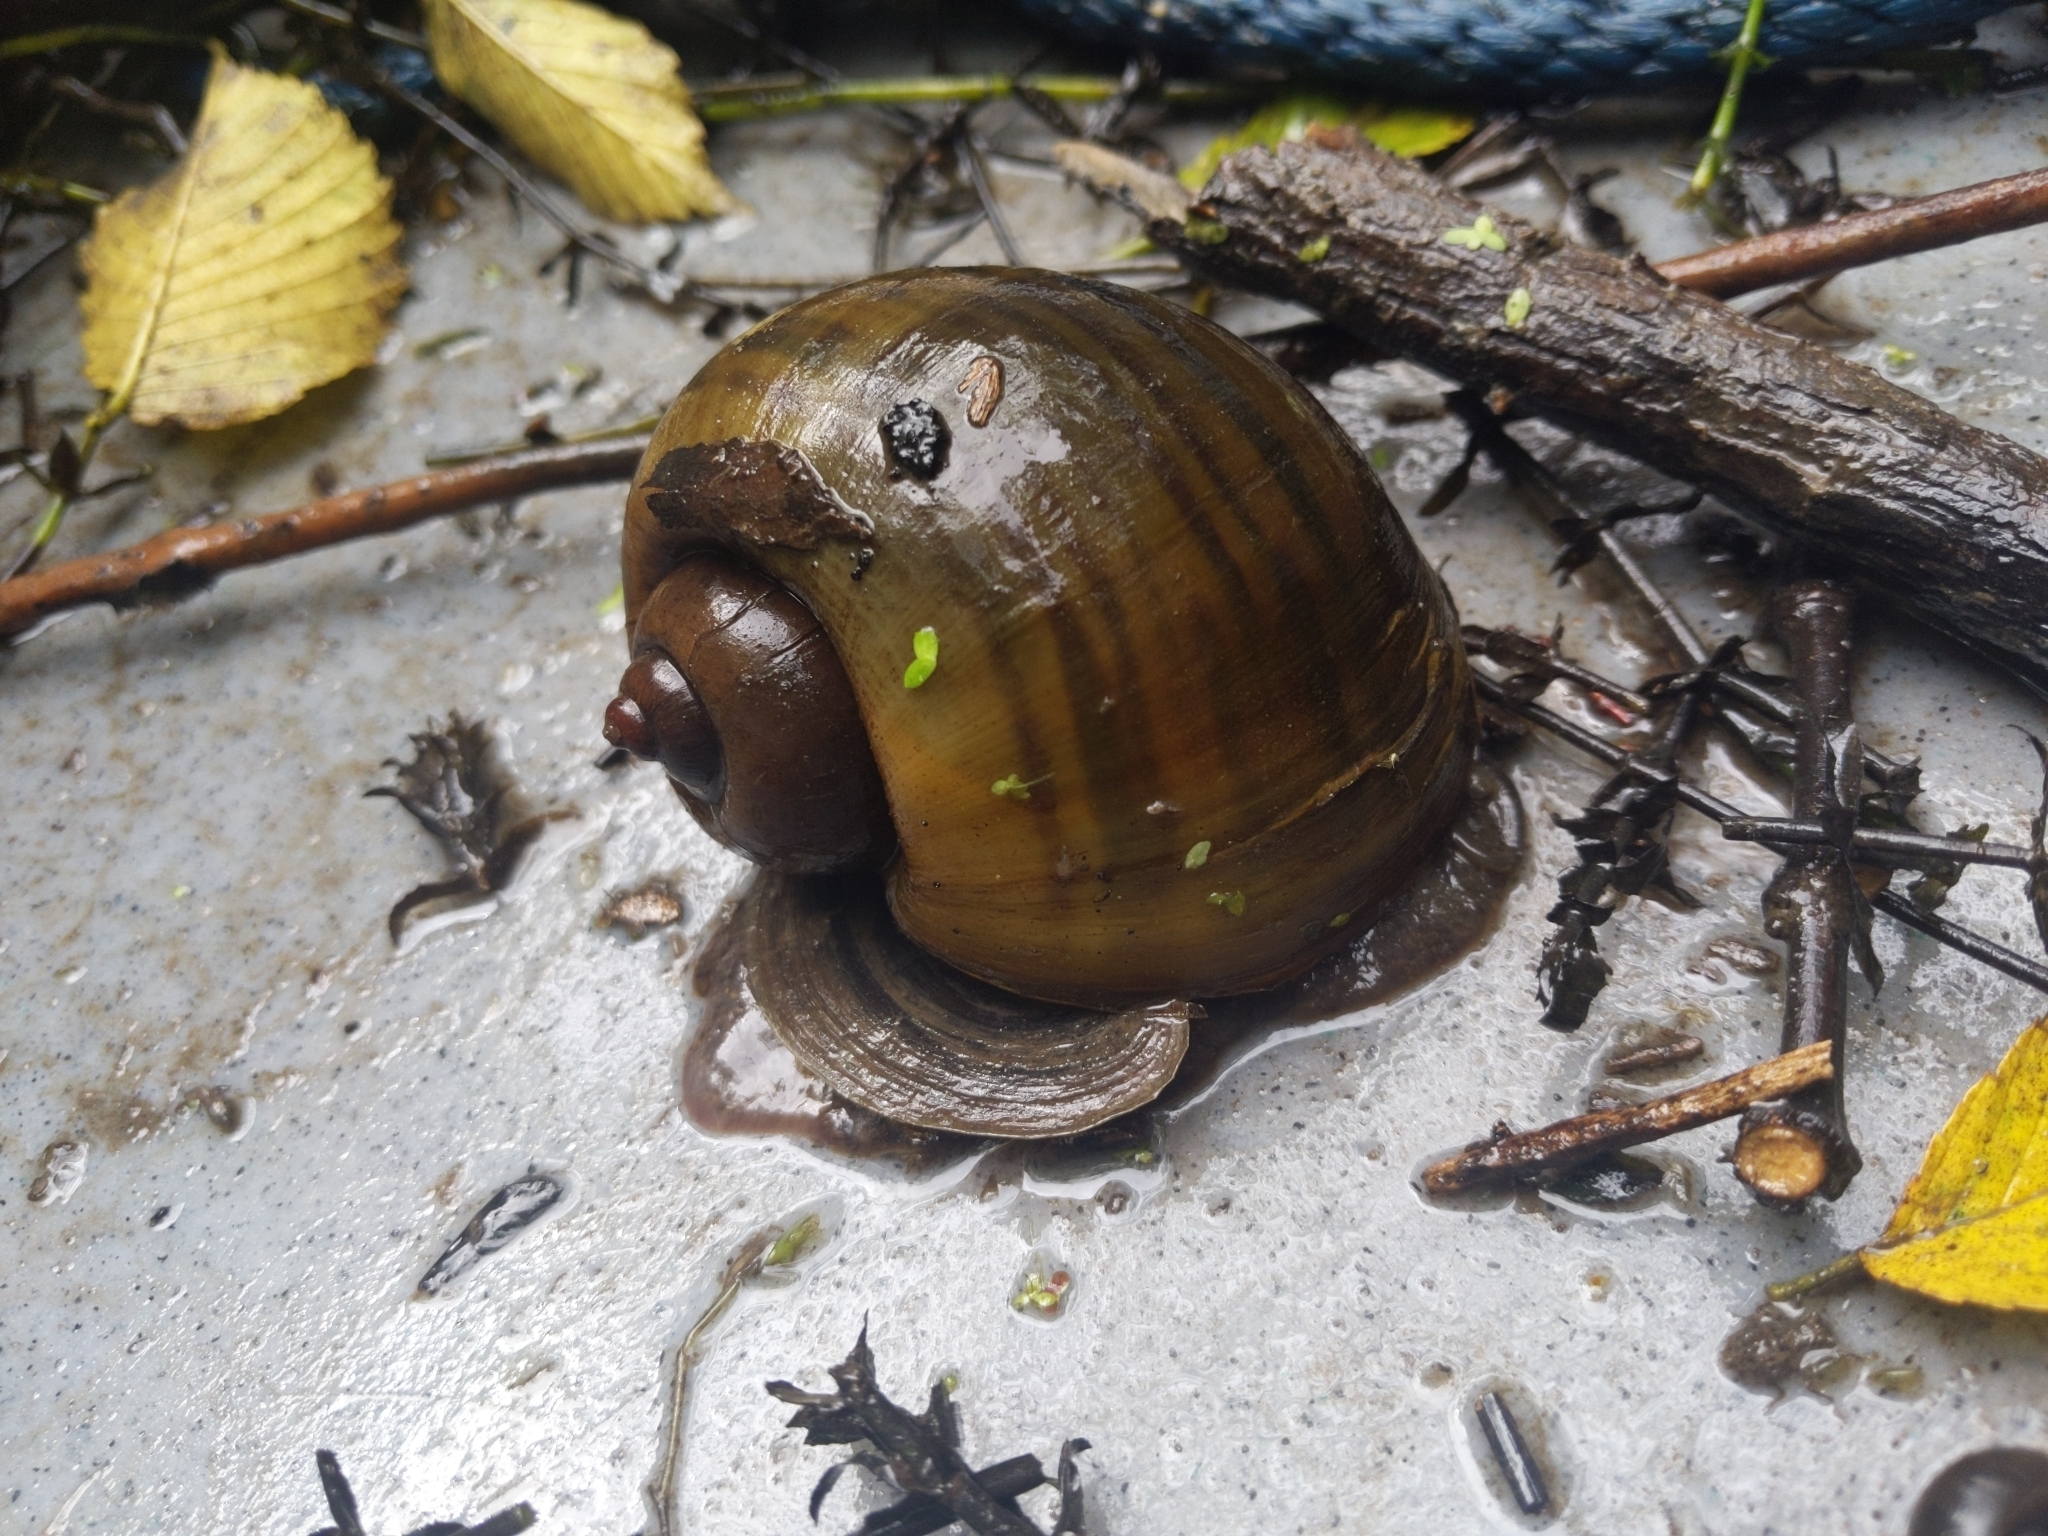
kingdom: Animalia
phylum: Mollusca
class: Gastropoda
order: Architaenioglossa
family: Ampullariidae
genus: Pomacea
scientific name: Pomacea canaliculata
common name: Channeled applesnail
